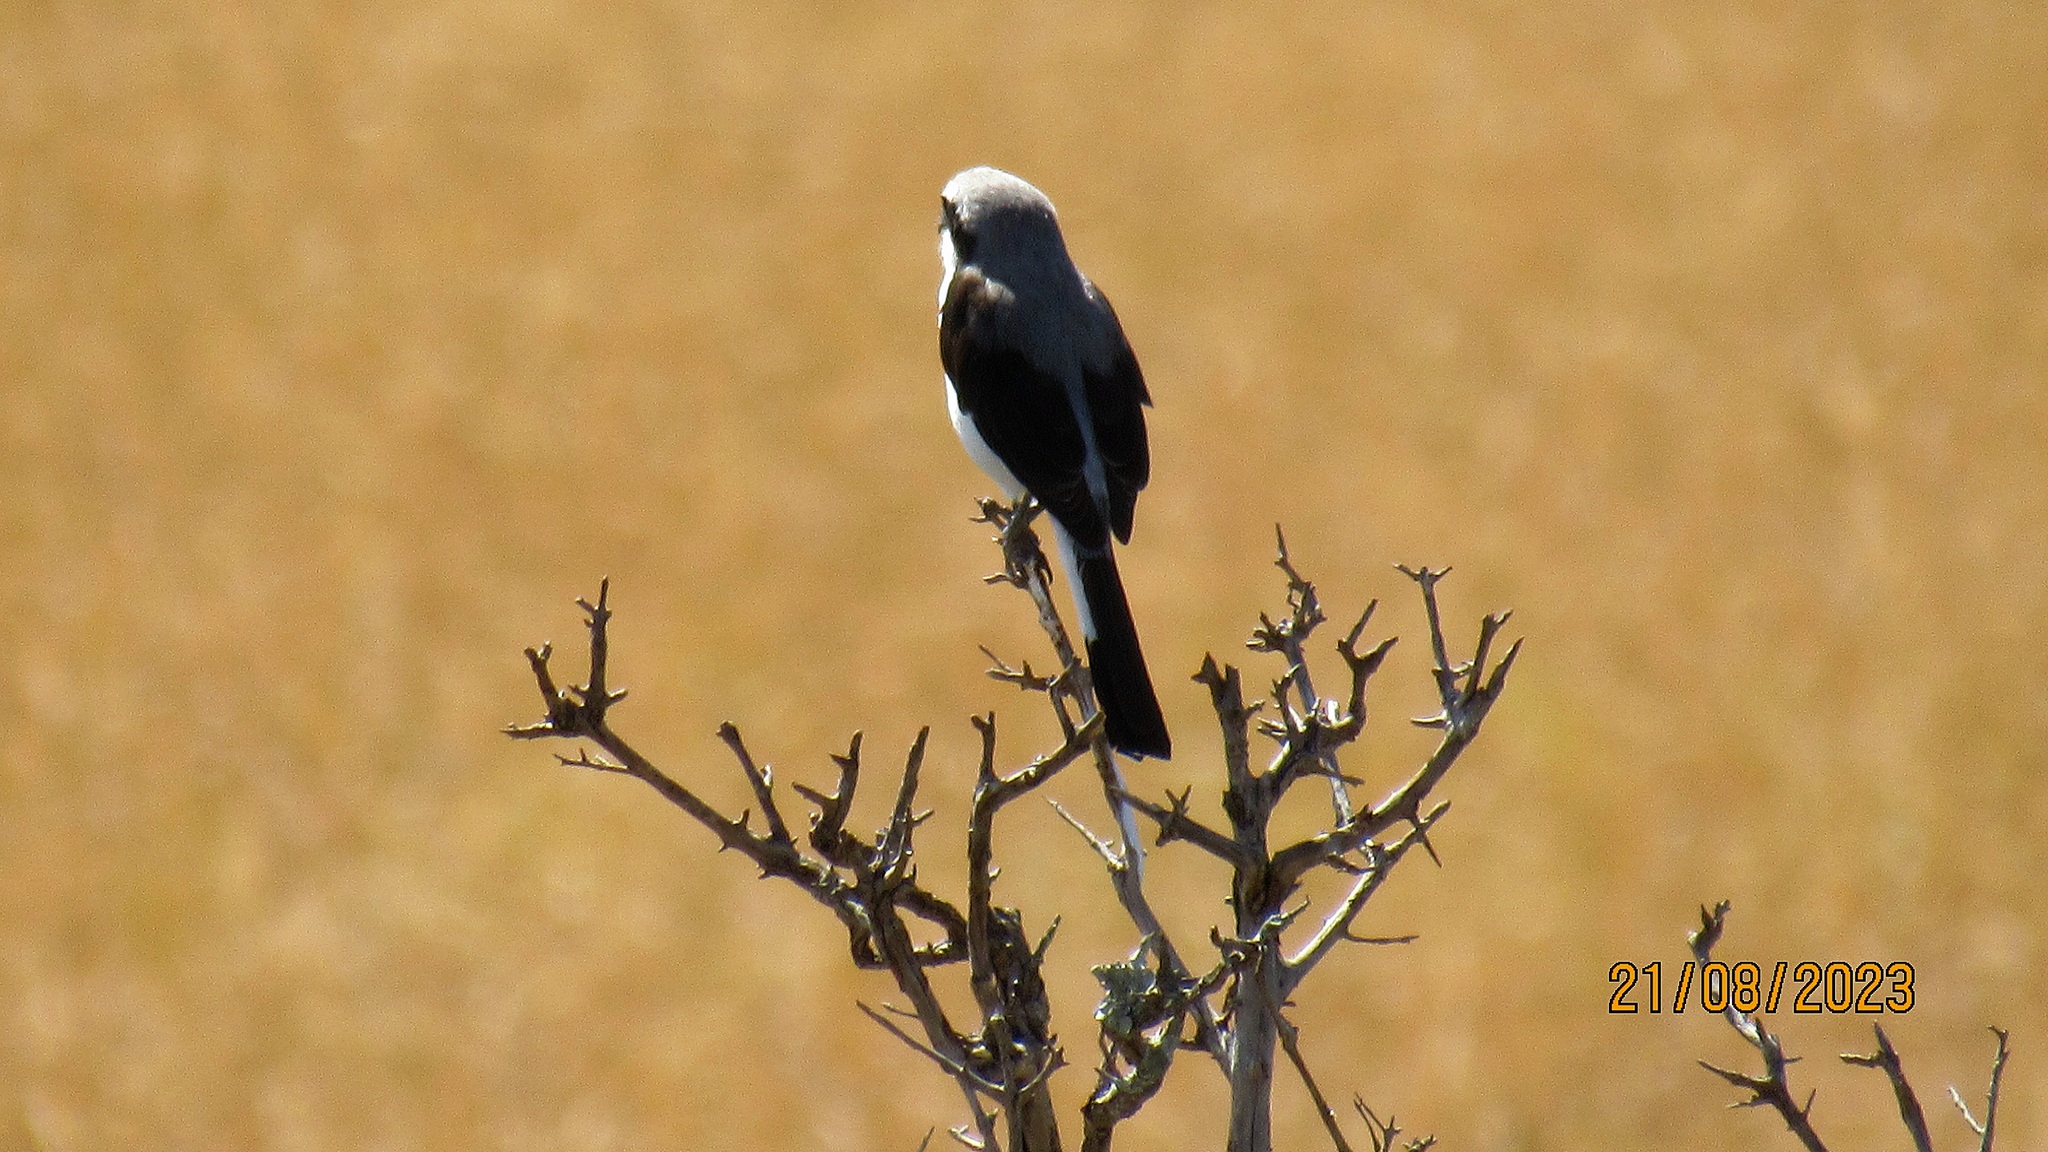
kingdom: Animalia
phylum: Chordata
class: Aves
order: Passeriformes
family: Laniidae
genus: Lanius
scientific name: Lanius excubitoroides
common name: Grey-backed fiscal
